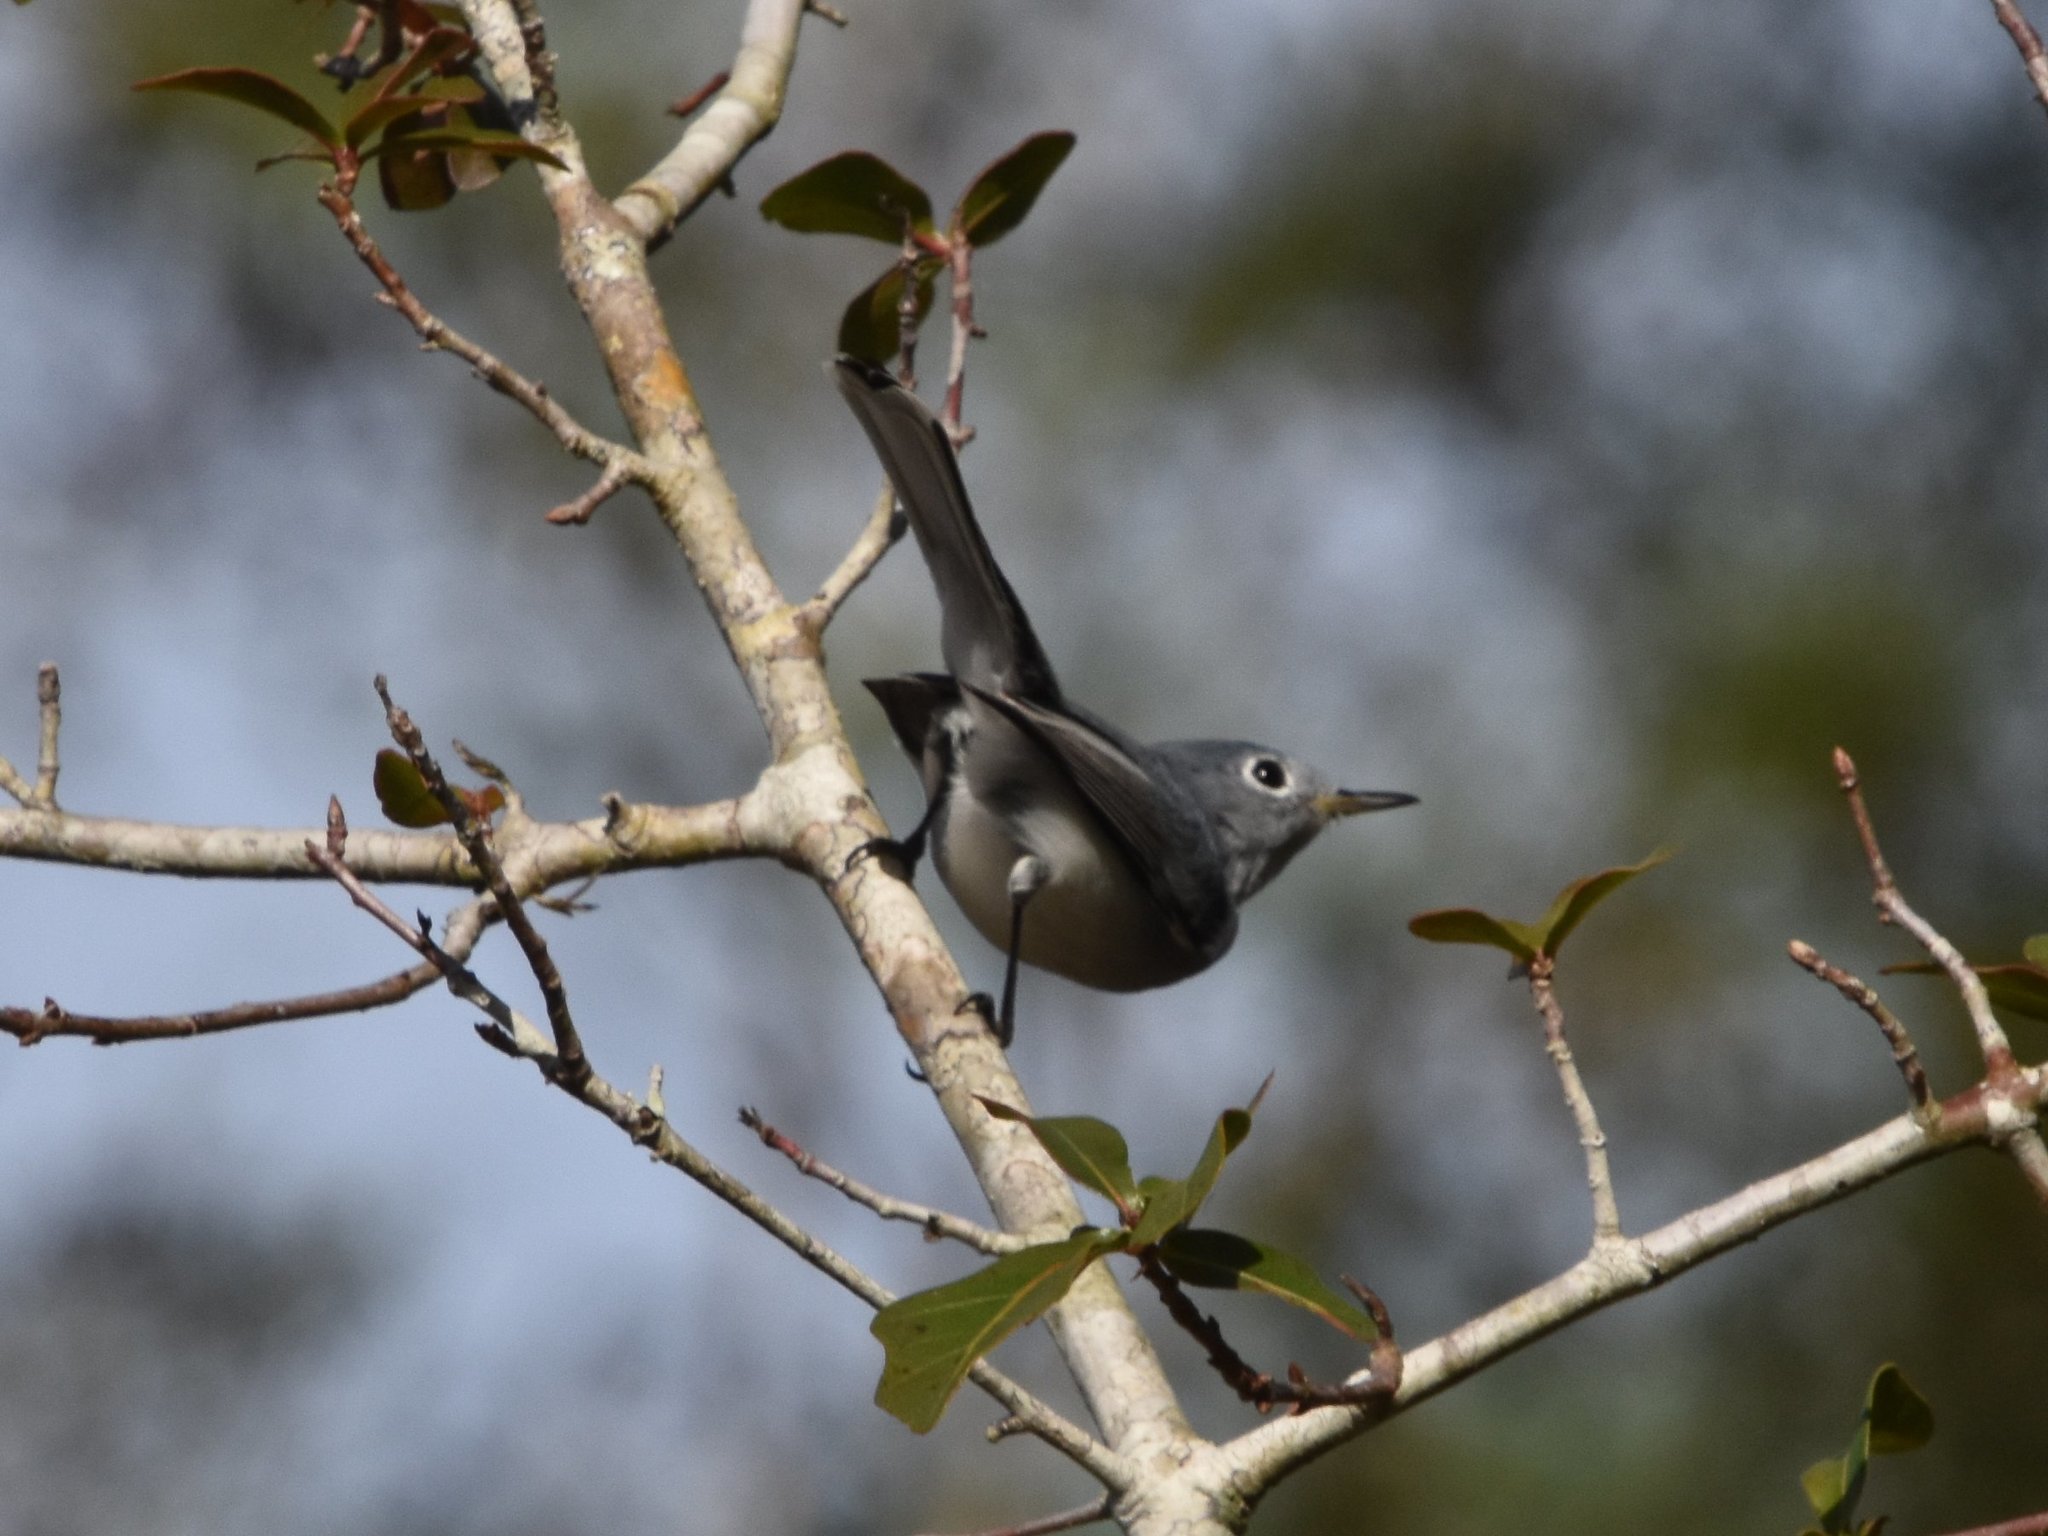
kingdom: Animalia
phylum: Chordata
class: Aves
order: Passeriformes
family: Polioptilidae
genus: Polioptila
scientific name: Polioptila caerulea
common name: Blue-gray gnatcatcher
